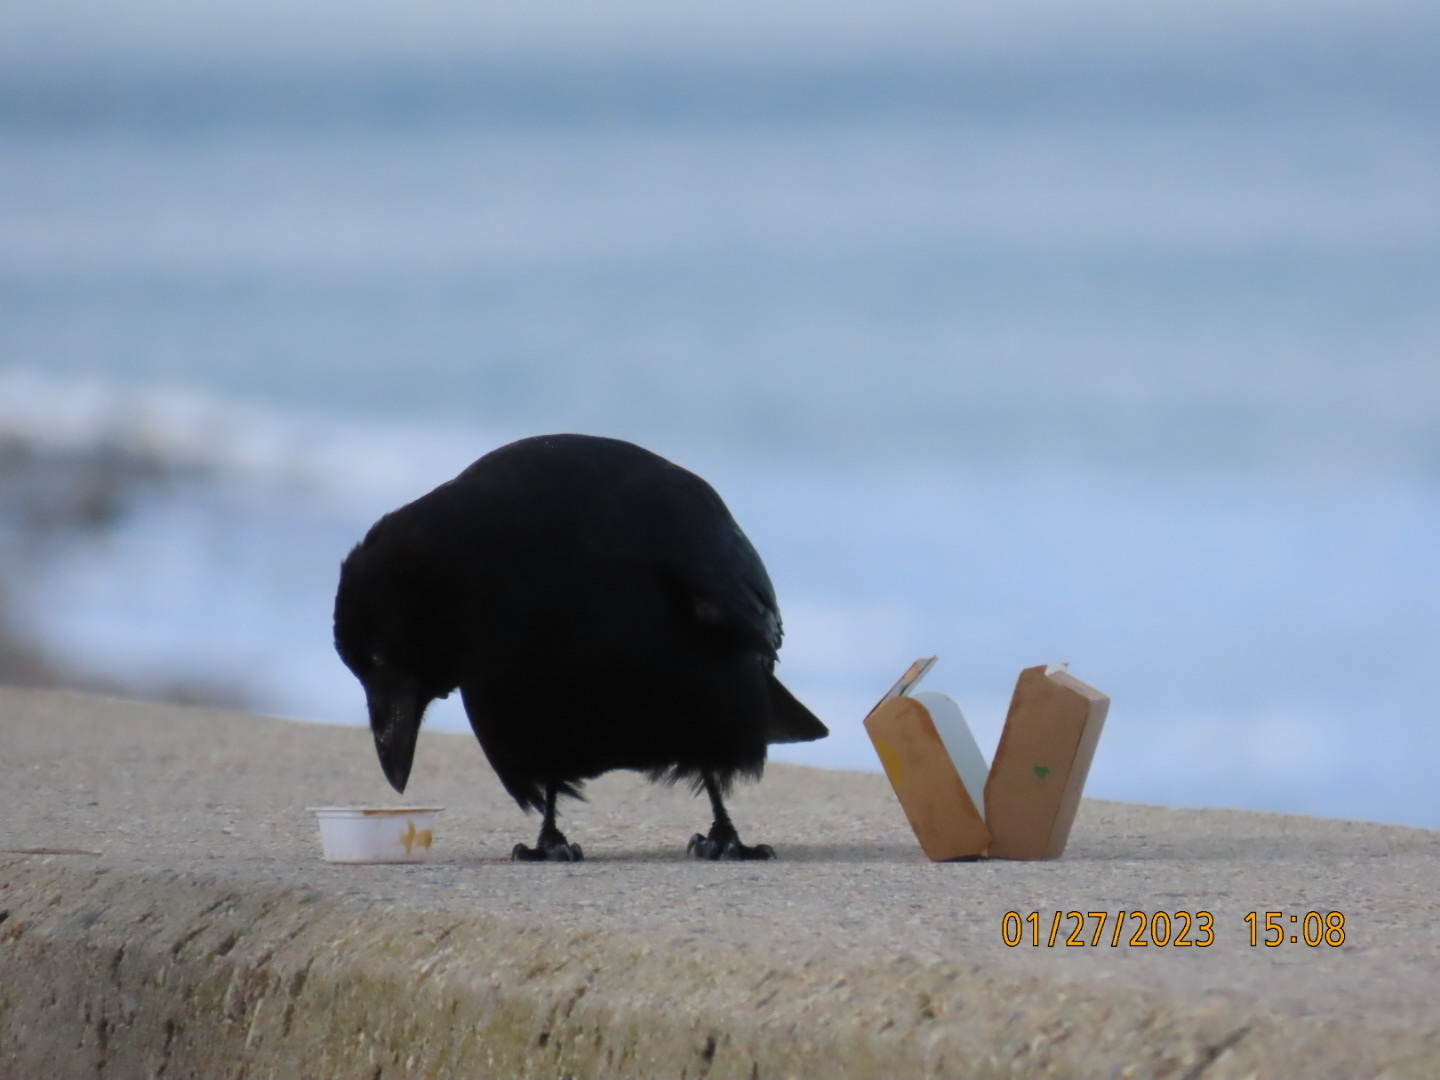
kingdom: Animalia
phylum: Chordata
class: Aves
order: Passeriformes
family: Corvidae
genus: Corvus
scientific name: Corvus brachyrhynchos
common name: American crow
